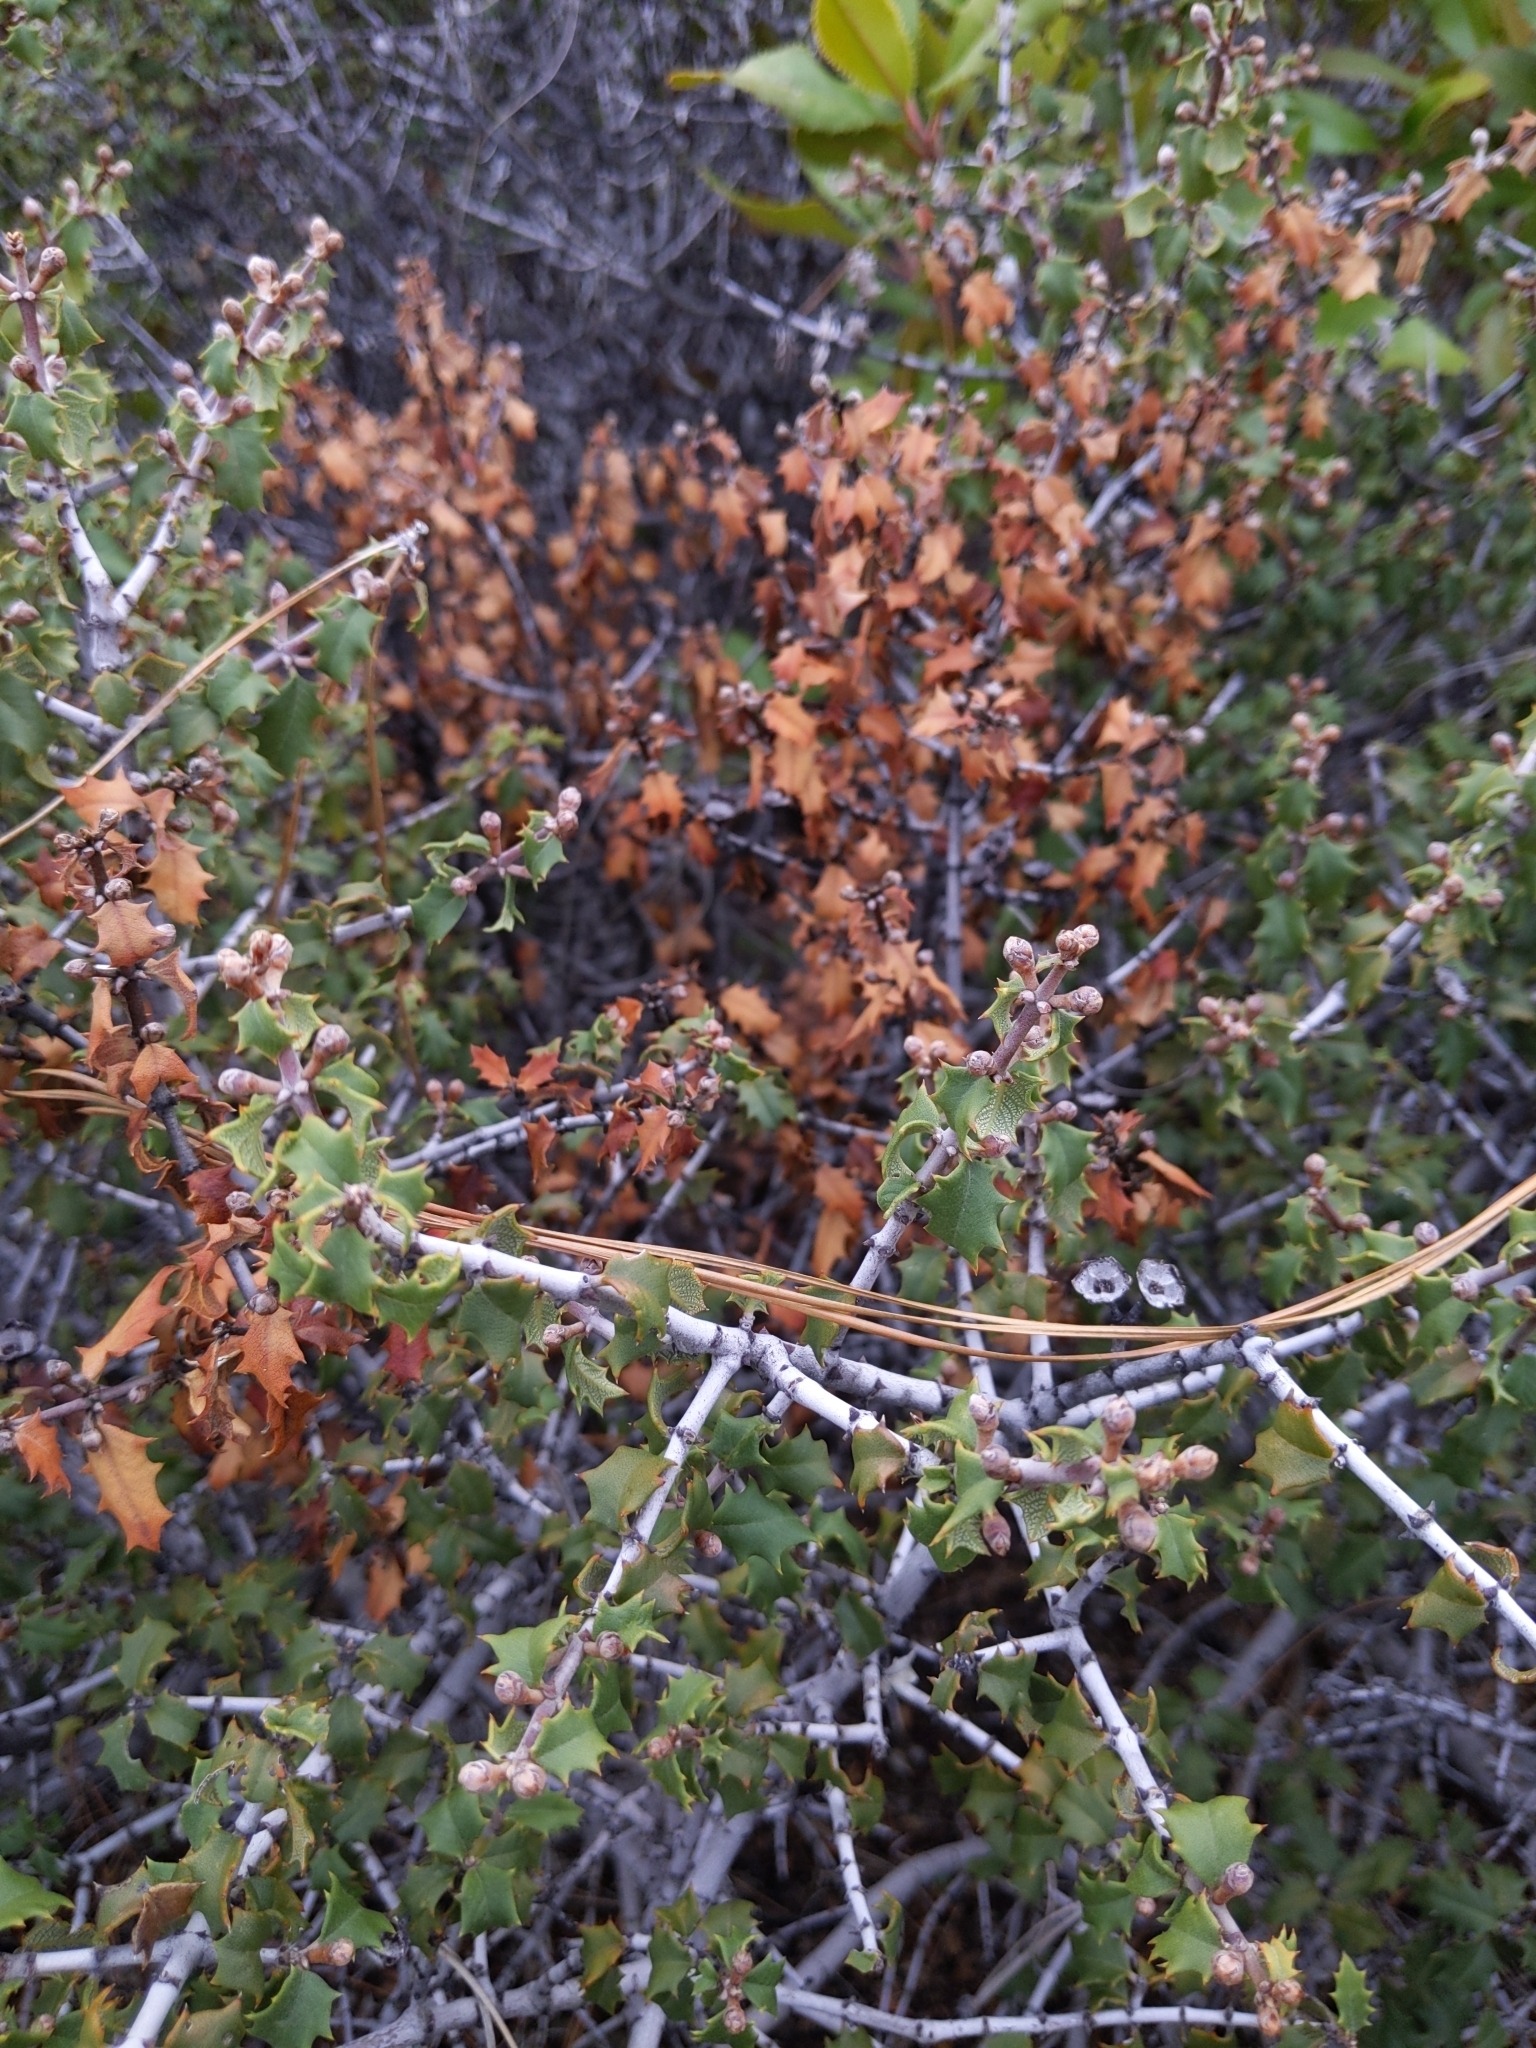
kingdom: Plantae
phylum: Tracheophyta
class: Magnoliopsida
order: Fagales
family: Fagaceae
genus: Quercus
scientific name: Quercus durata
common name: Leather oak
